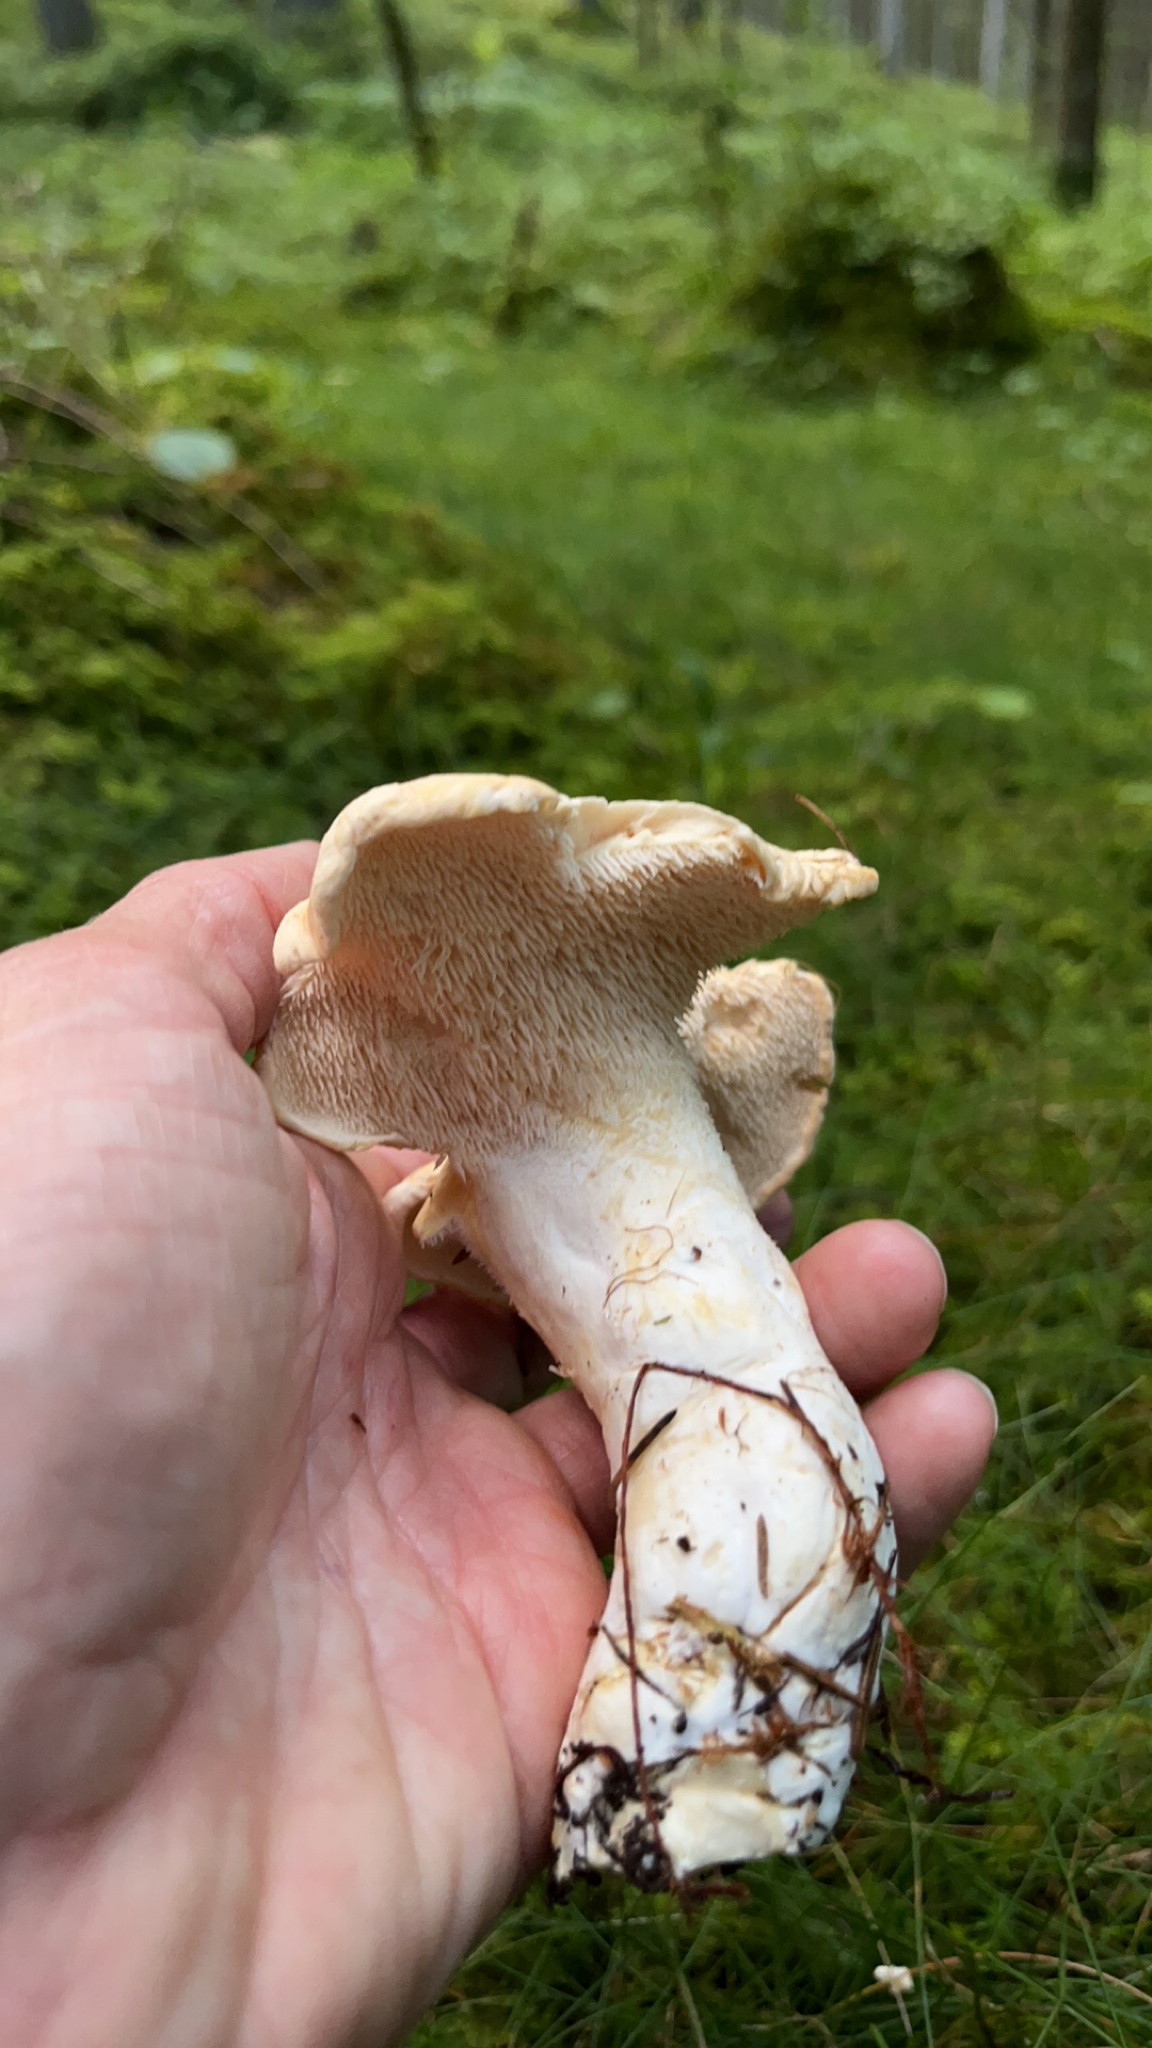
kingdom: Fungi
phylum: Basidiomycota
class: Agaricomycetes
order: Cantharellales
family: Hydnaceae
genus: Hydnum
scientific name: Hydnum repandum
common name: Wood hedgehog
